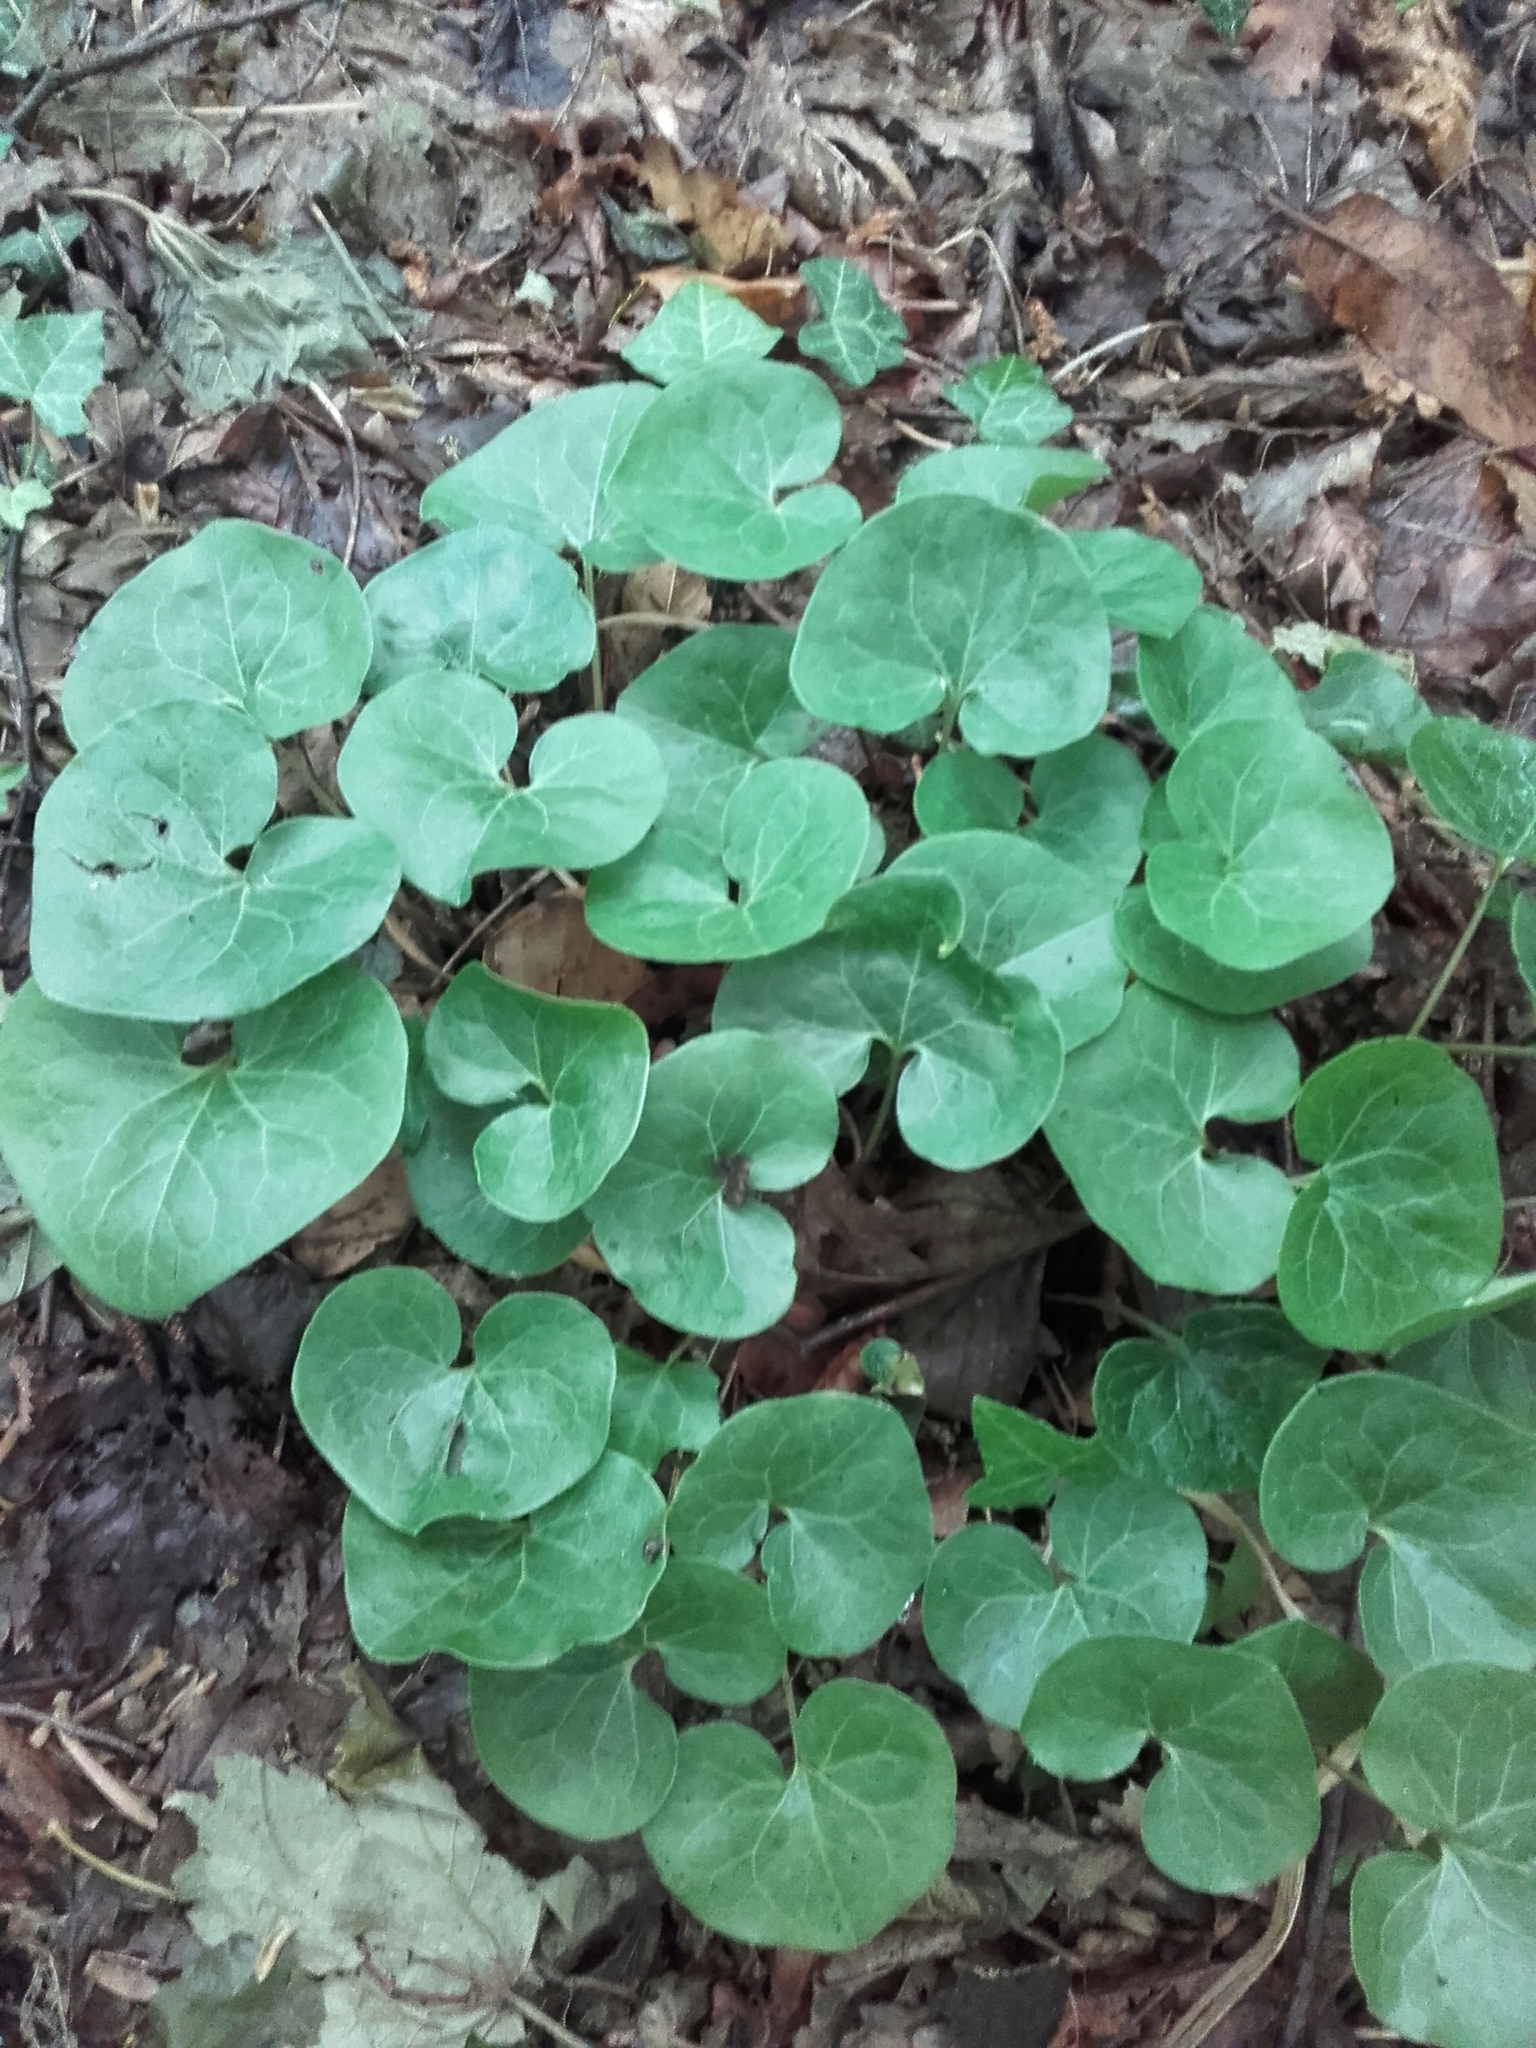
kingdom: Plantae
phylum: Tracheophyta
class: Magnoliopsida
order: Piperales
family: Aristolochiaceae
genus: Asarum
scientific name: Asarum europaeum
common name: Asarabacca
